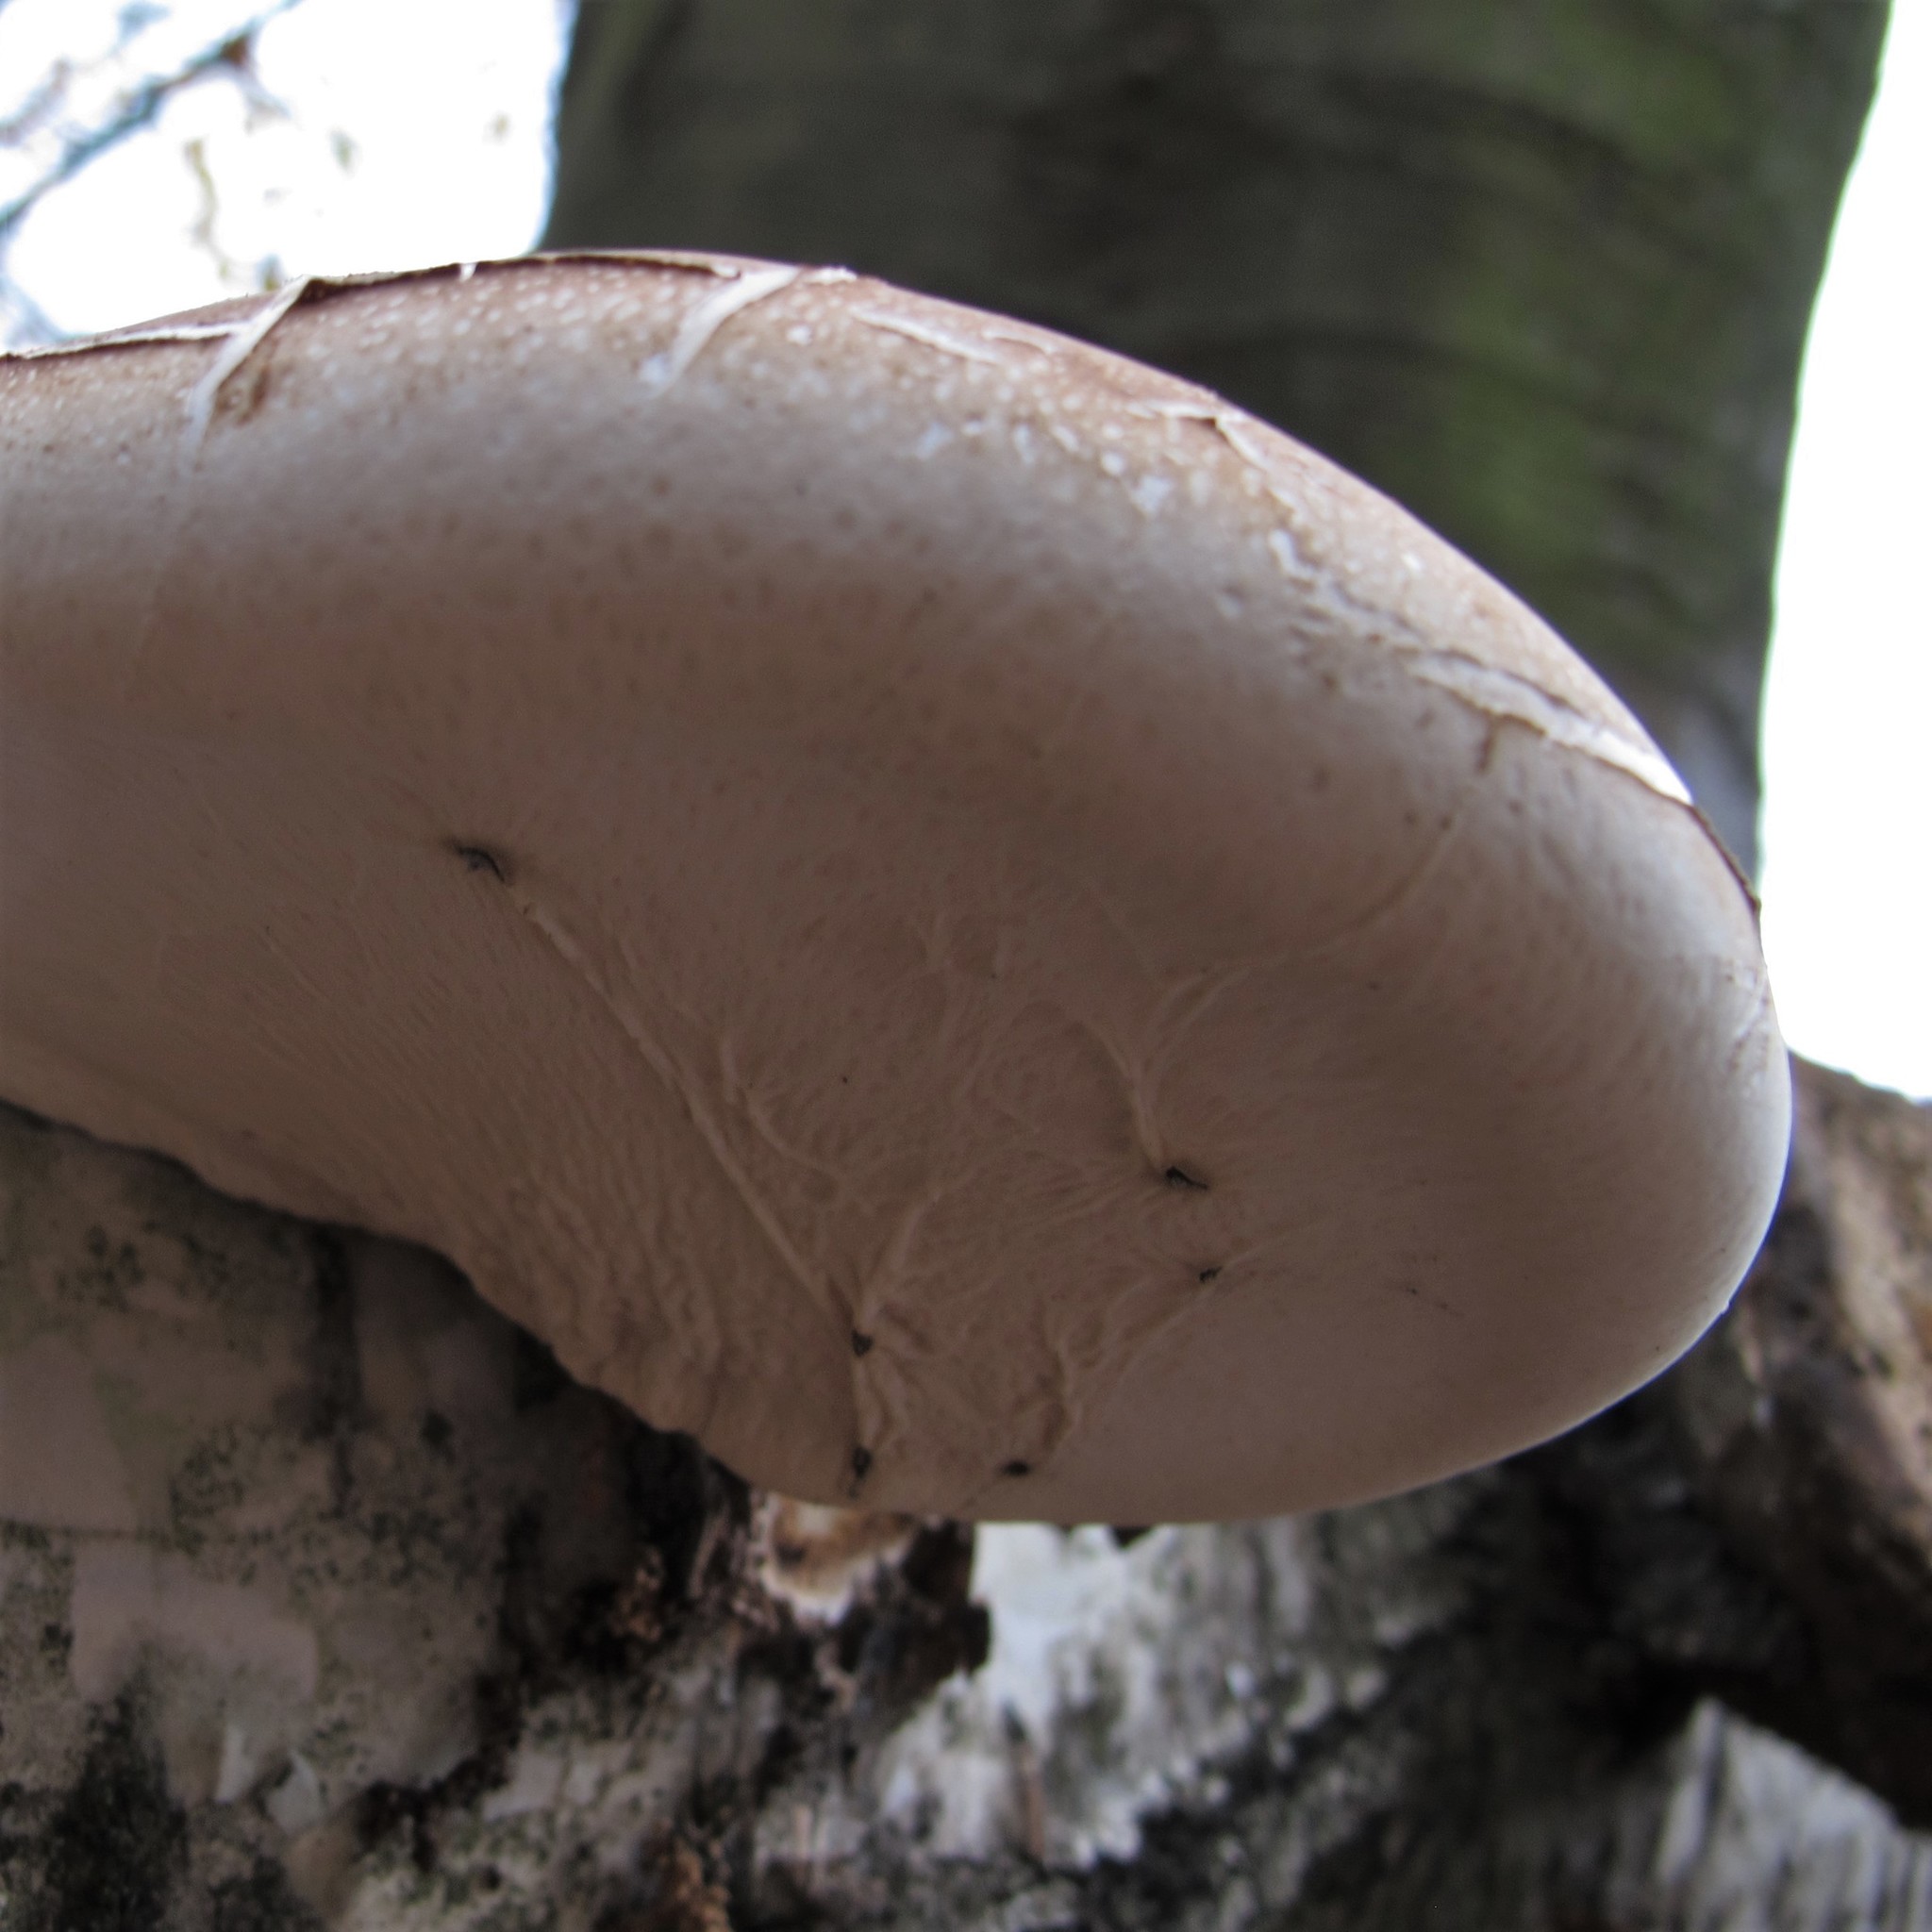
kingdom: Fungi
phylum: Basidiomycota
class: Agaricomycetes
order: Polyporales
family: Fomitopsidaceae
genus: Fomitopsis
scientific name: Fomitopsis betulina
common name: Birch polypore
